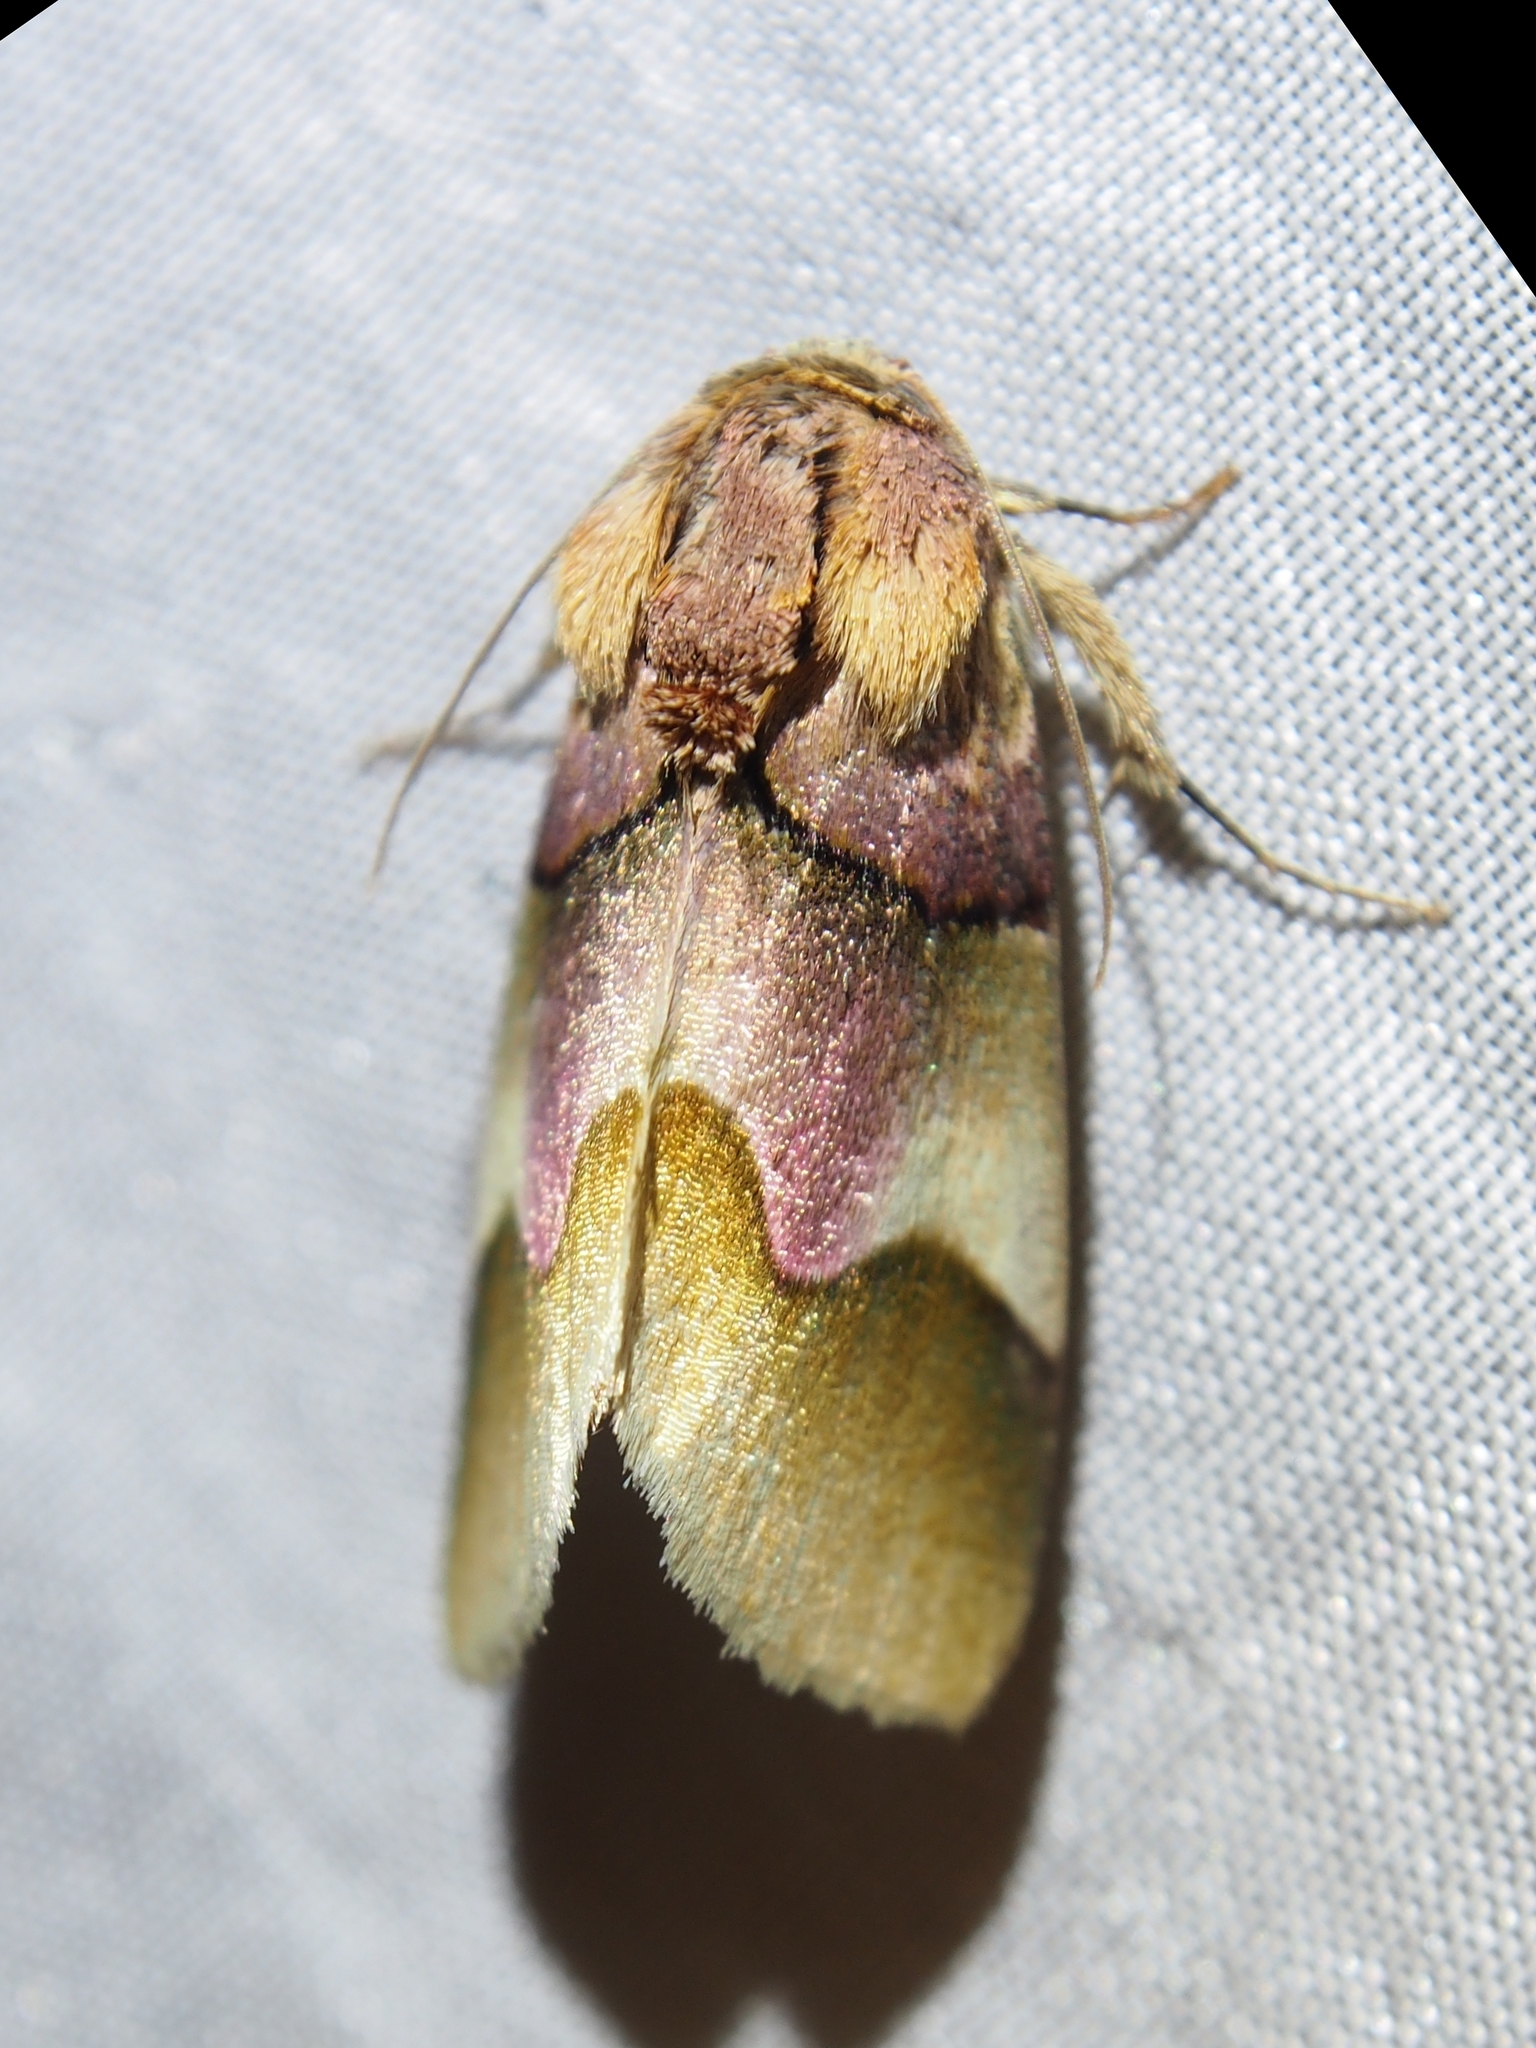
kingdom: Animalia
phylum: Arthropoda
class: Insecta
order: Lepidoptera
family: Noctuidae
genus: Chalcoecia
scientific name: Chalcoecia gloria
